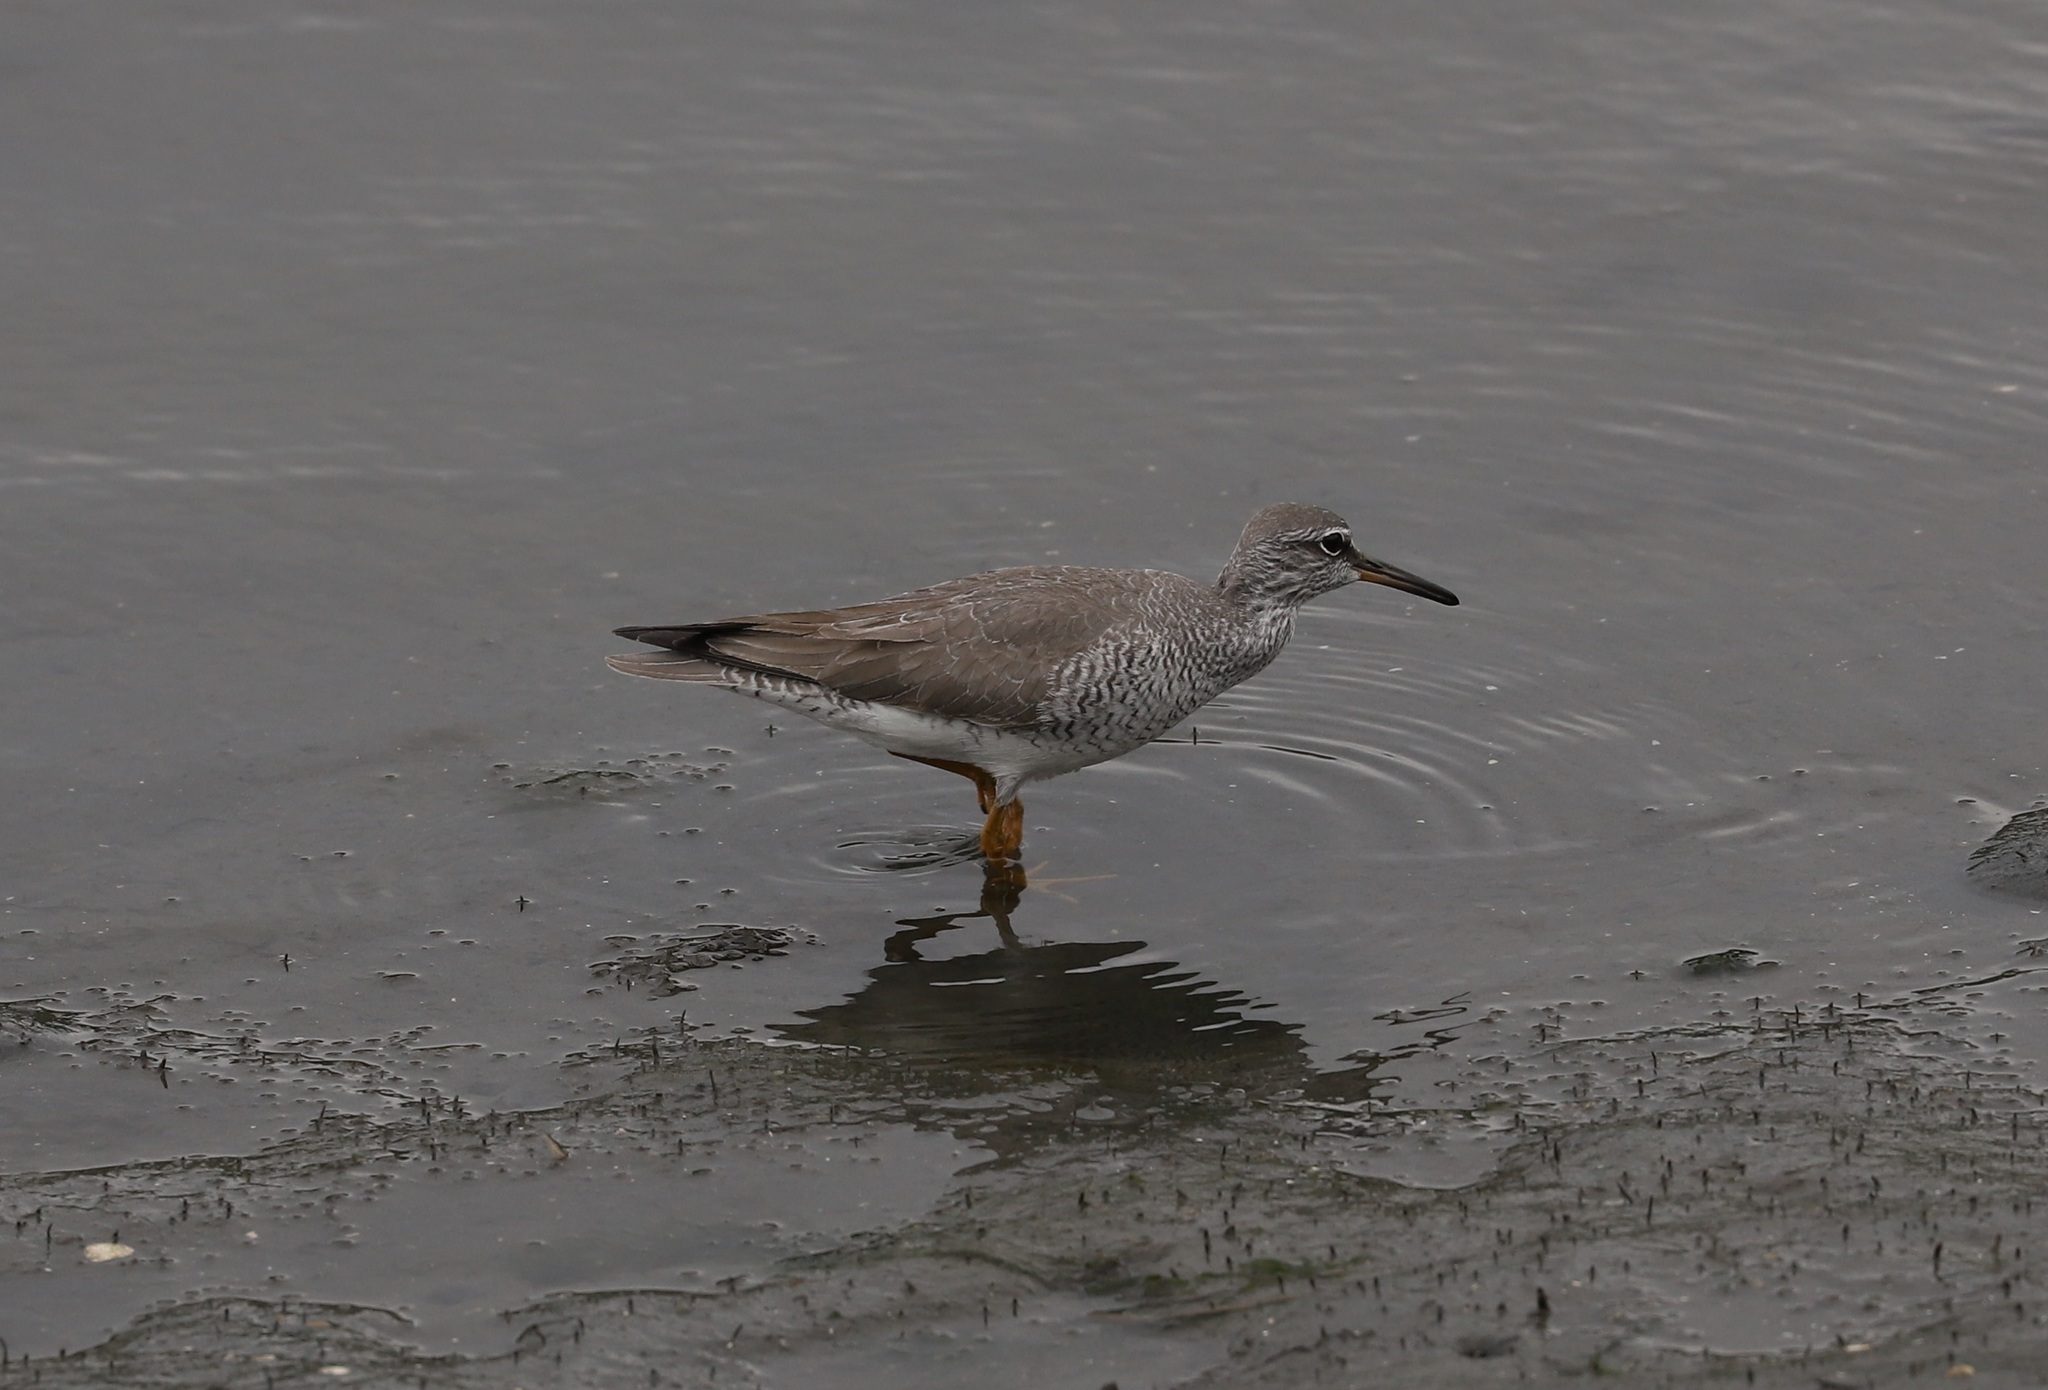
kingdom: Animalia
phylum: Chordata
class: Aves
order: Charadriiformes
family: Scolopacidae
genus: Tringa
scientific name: Tringa brevipes
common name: Grey-tailed tattler
